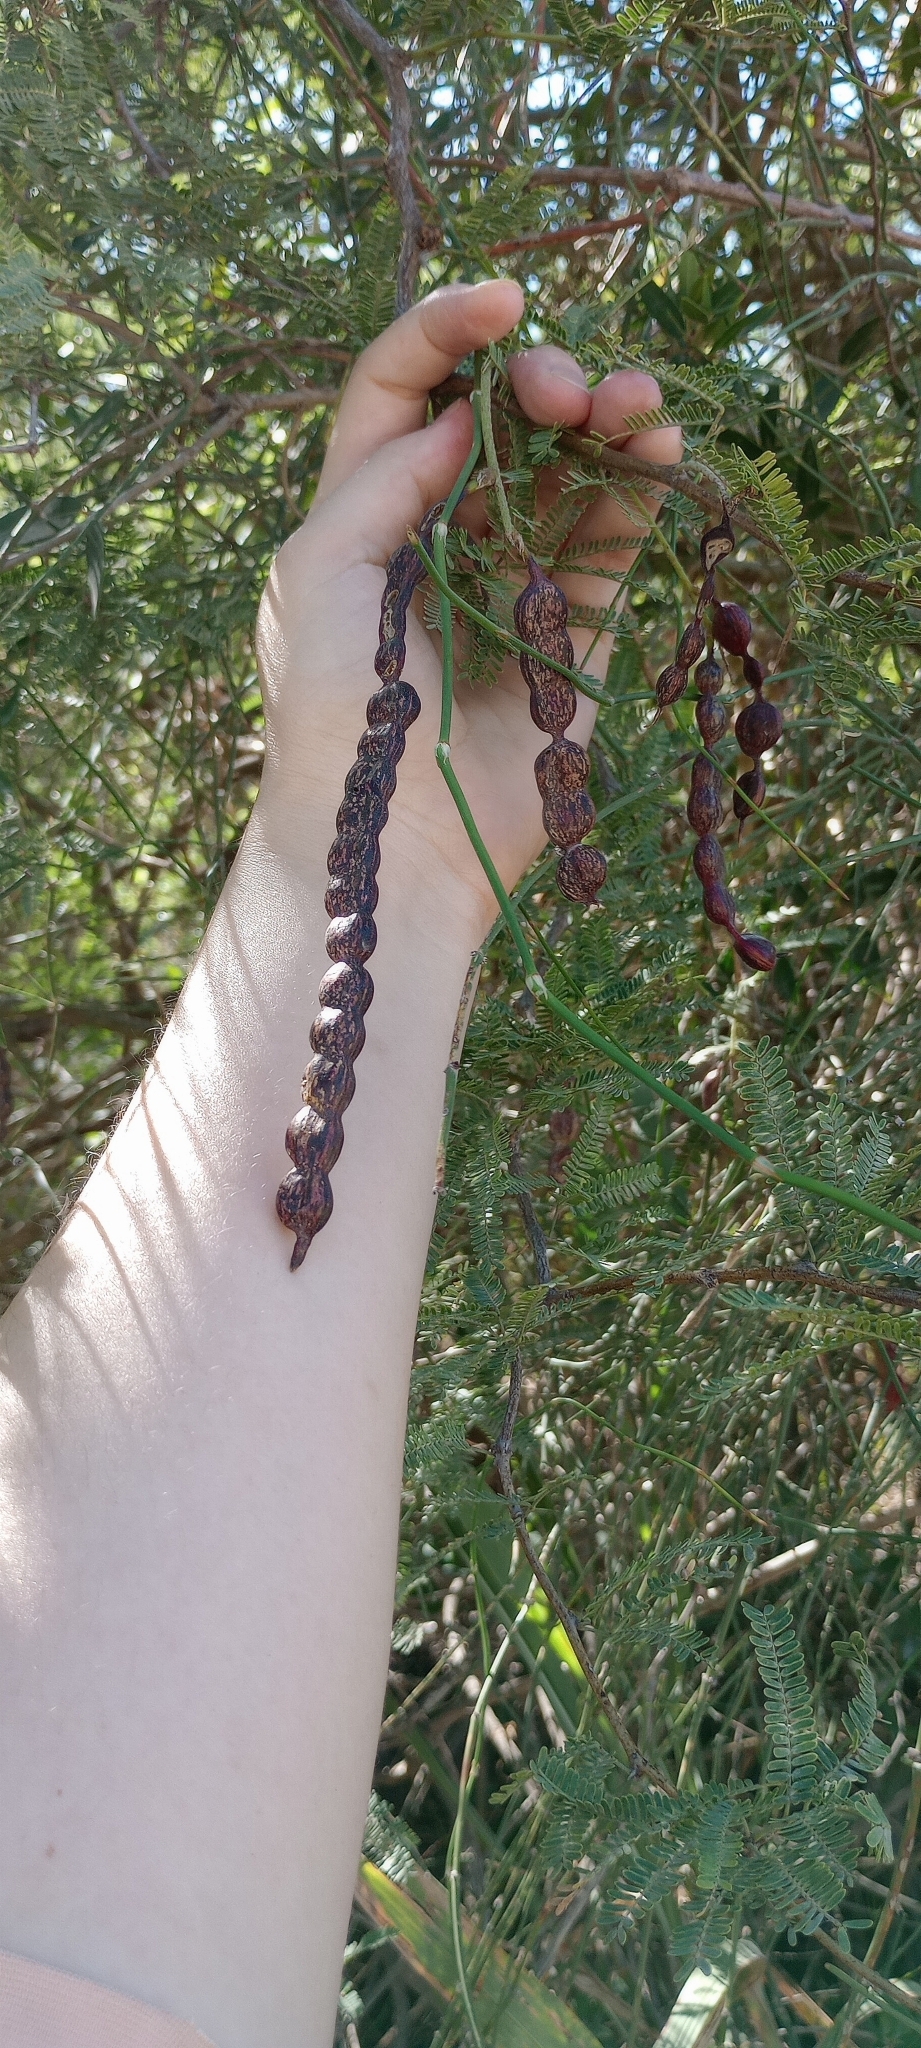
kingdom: Plantae
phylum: Tracheophyta
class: Magnoliopsida
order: Fabales
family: Fabaceae
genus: Prosopis
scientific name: Prosopis nigra
